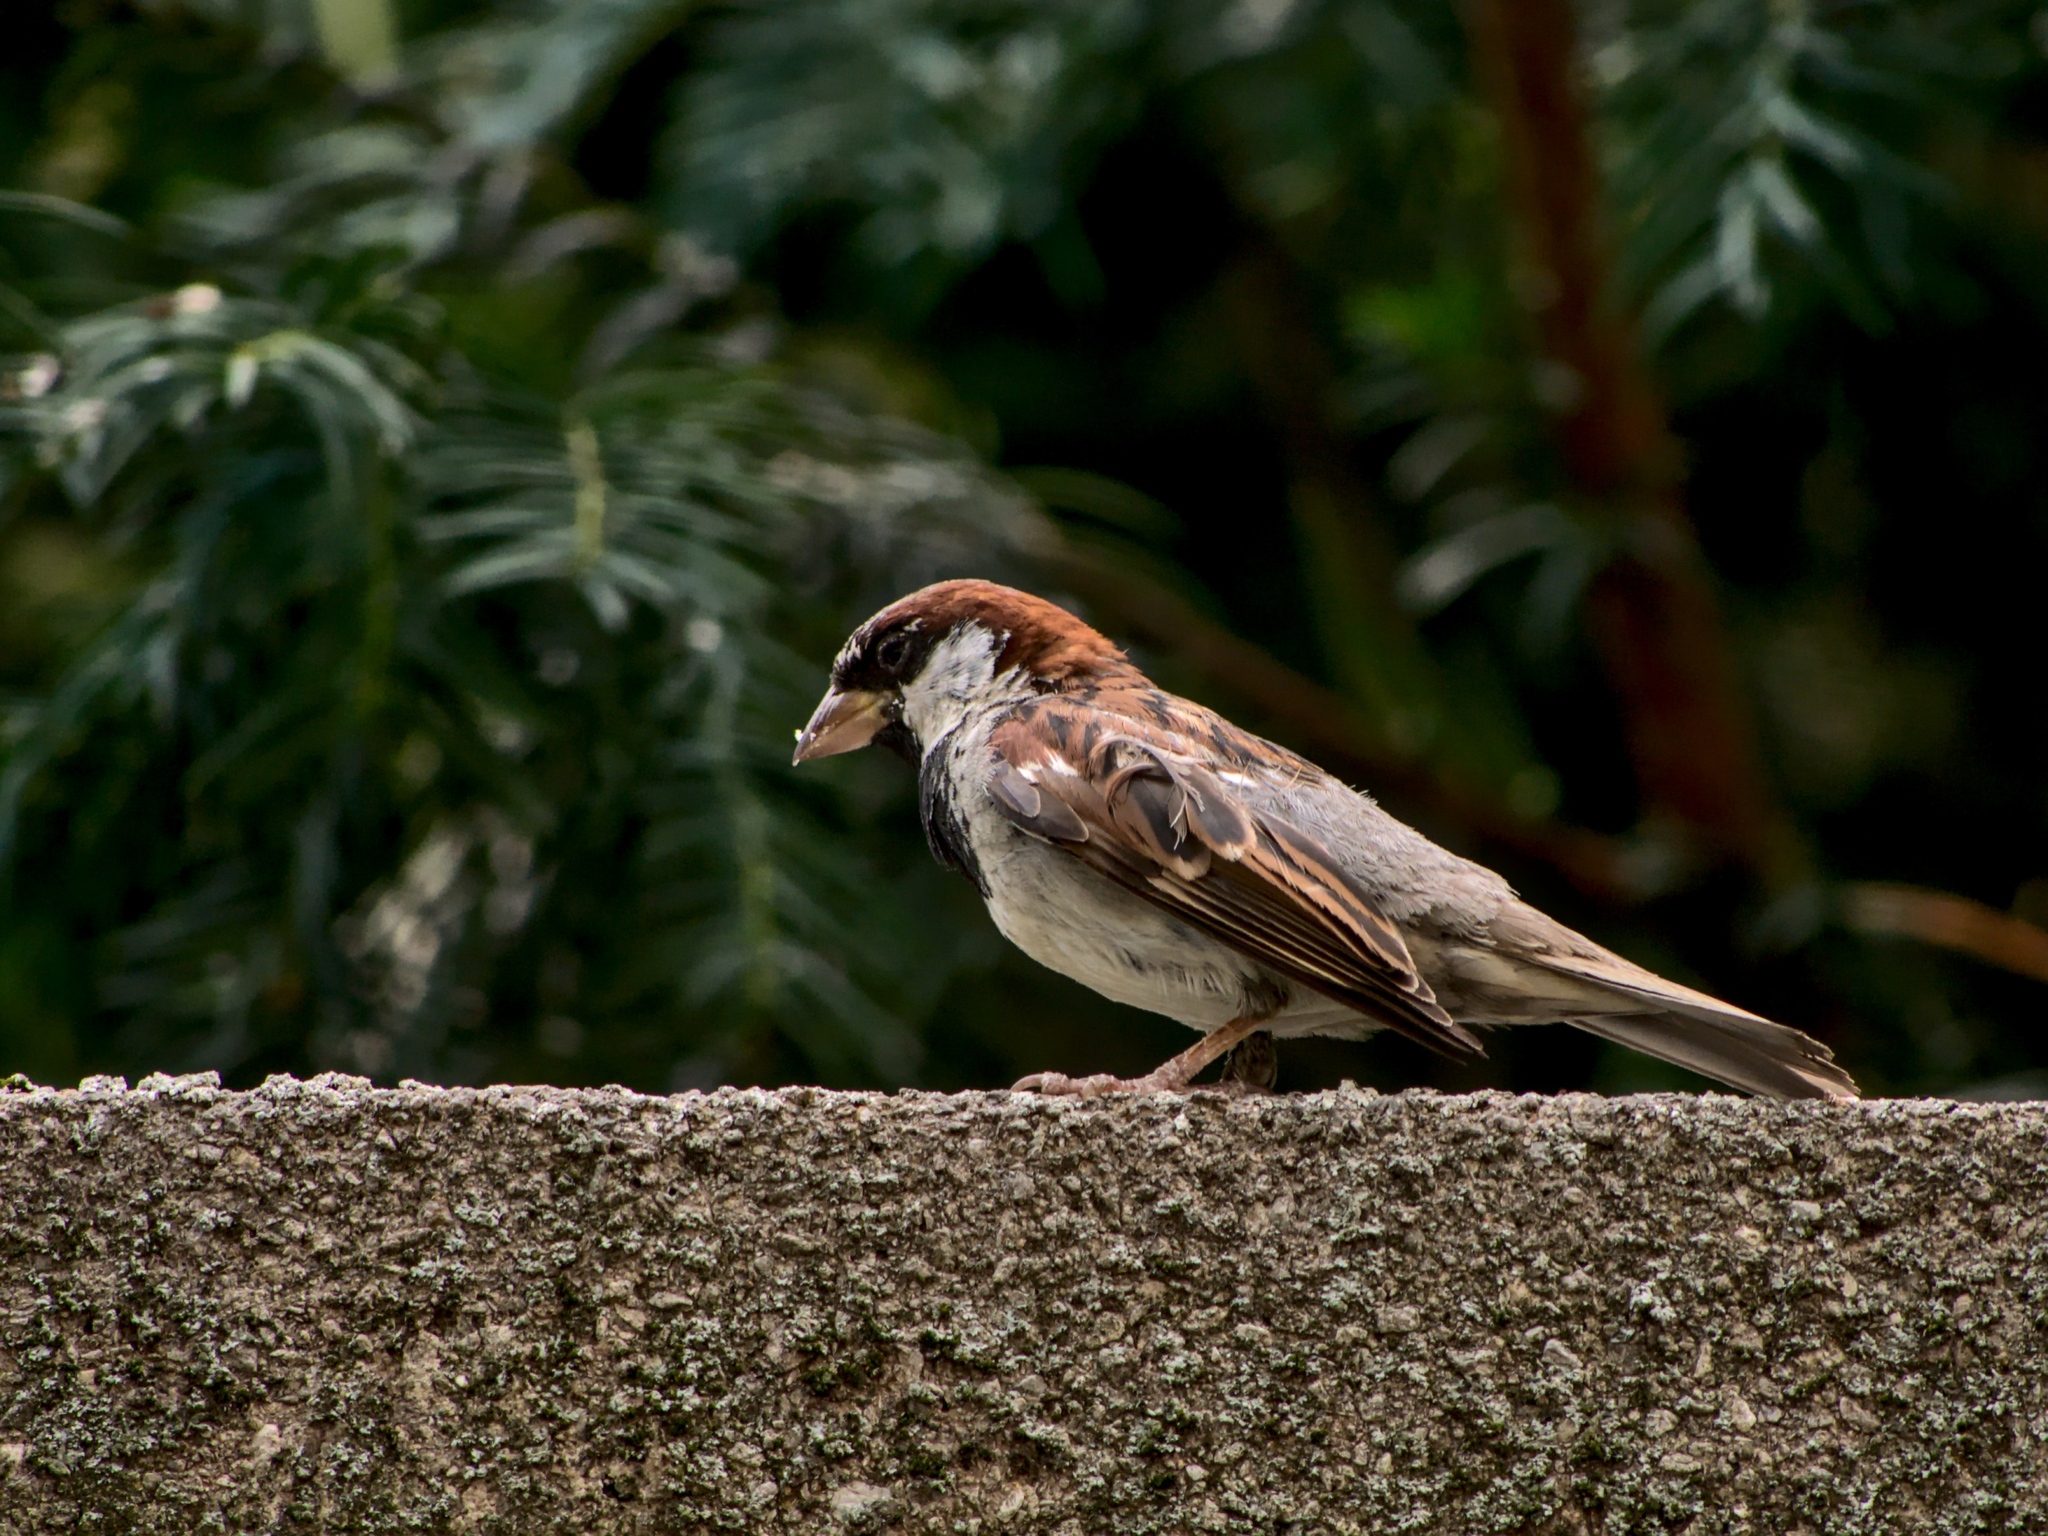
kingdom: Animalia
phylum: Chordata
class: Aves
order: Passeriformes
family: Passeridae
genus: Passer
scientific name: Passer domesticus
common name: House sparrow
